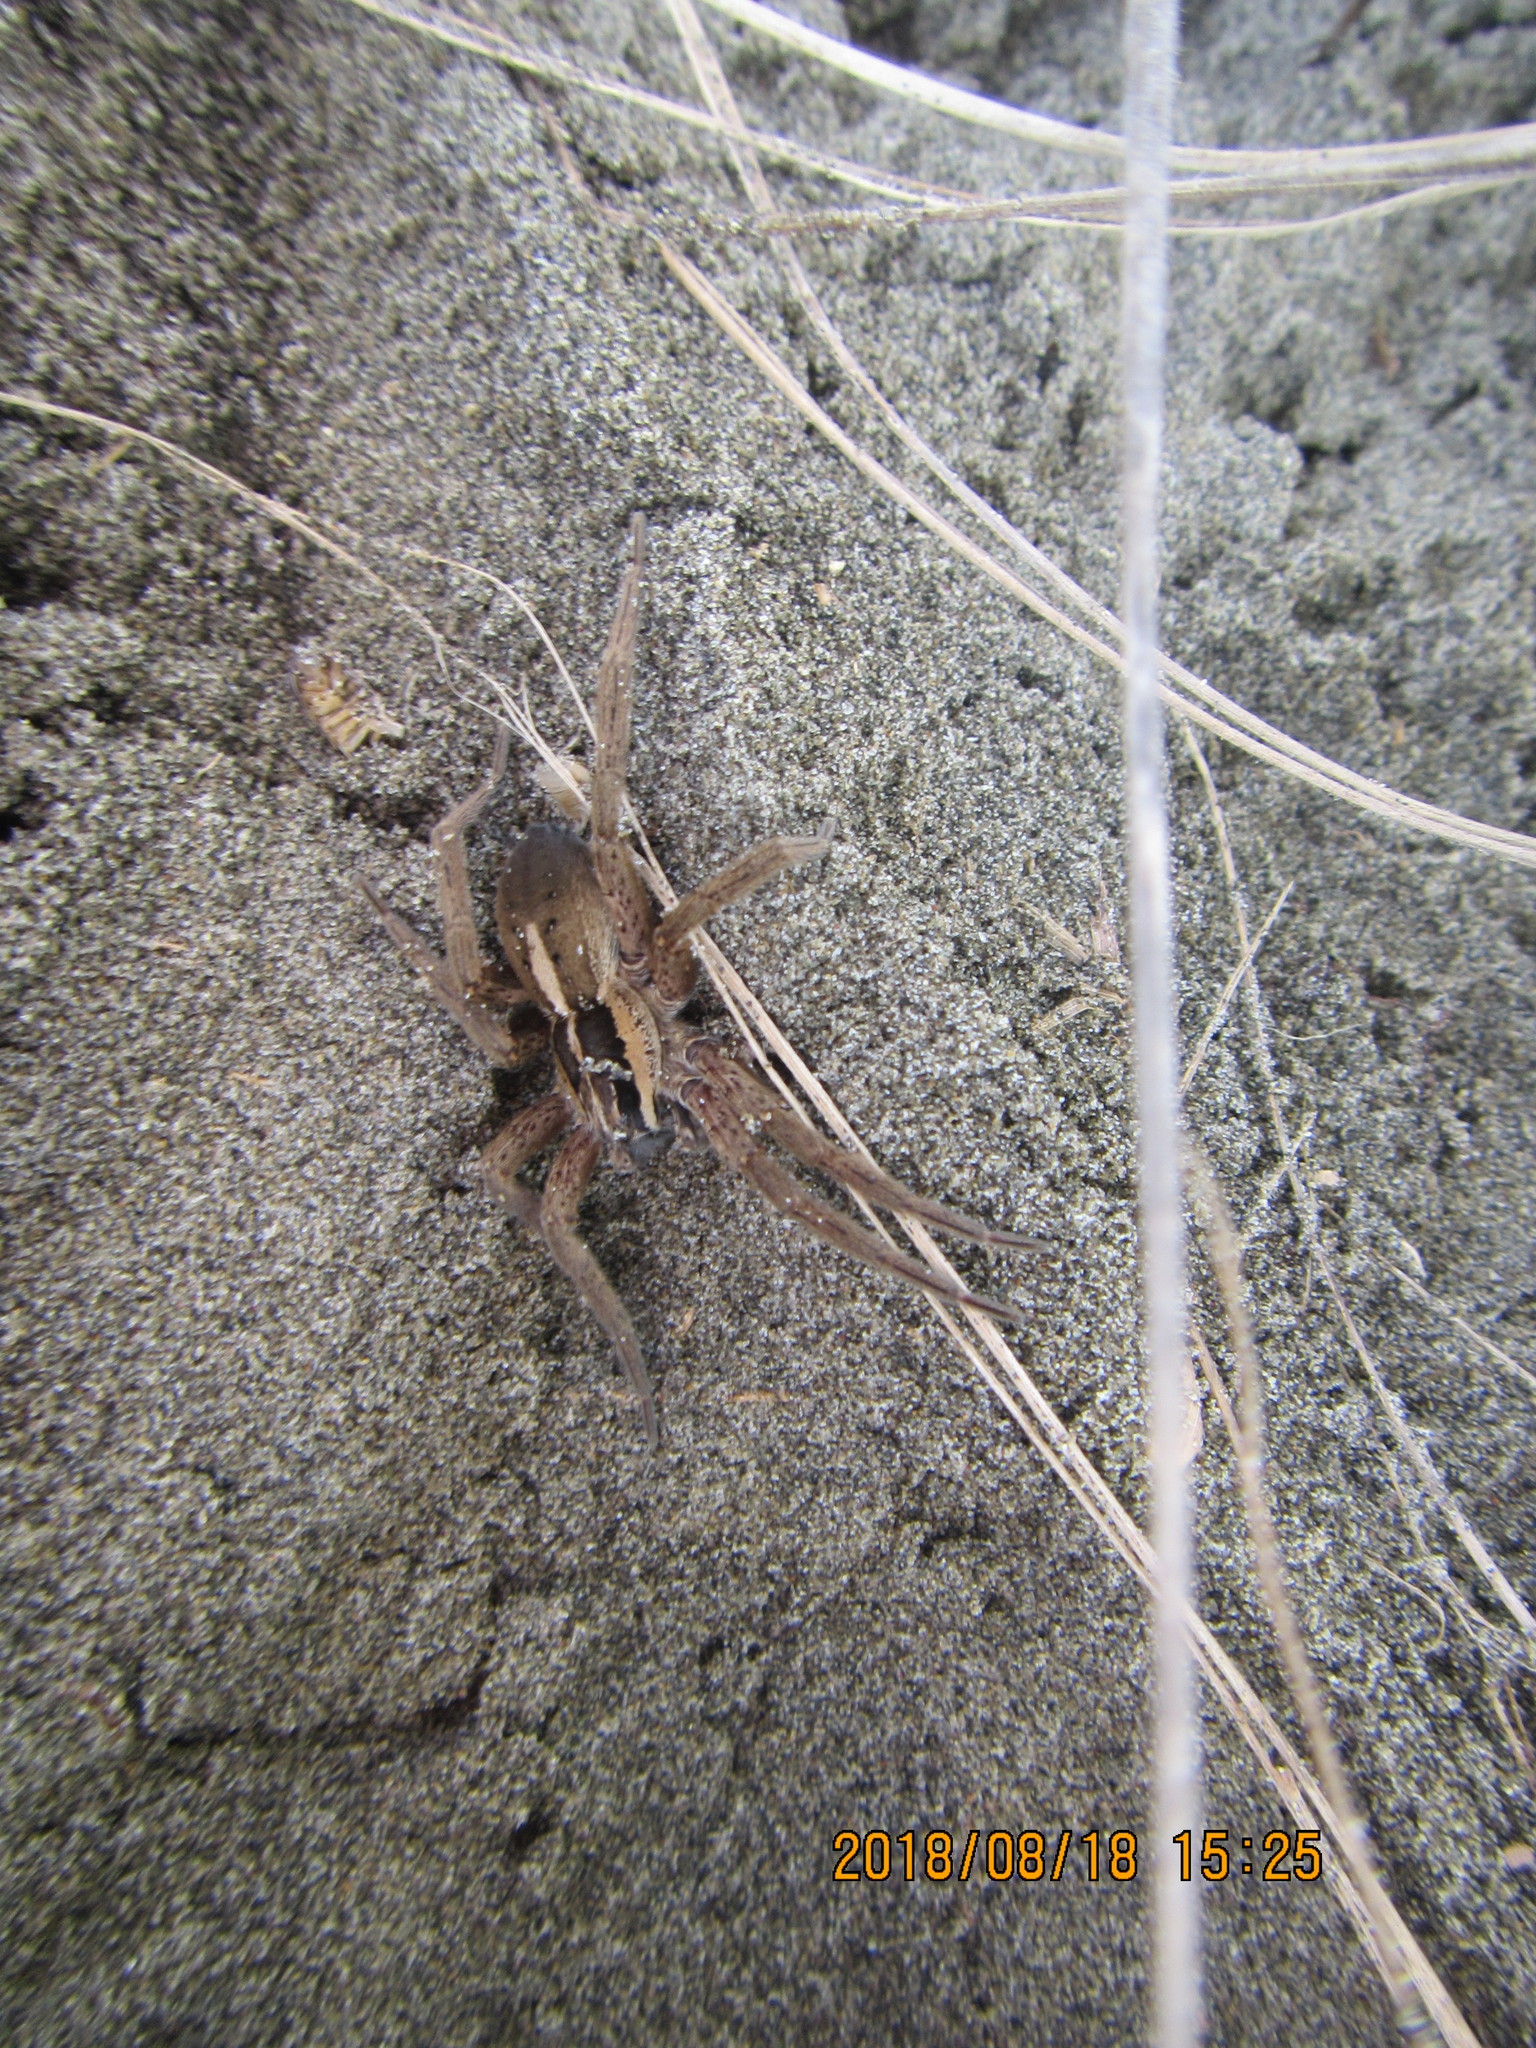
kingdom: Animalia
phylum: Arthropoda
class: Arachnida
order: Araneae
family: Pisauridae
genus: Dolomedes
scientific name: Dolomedes minor
